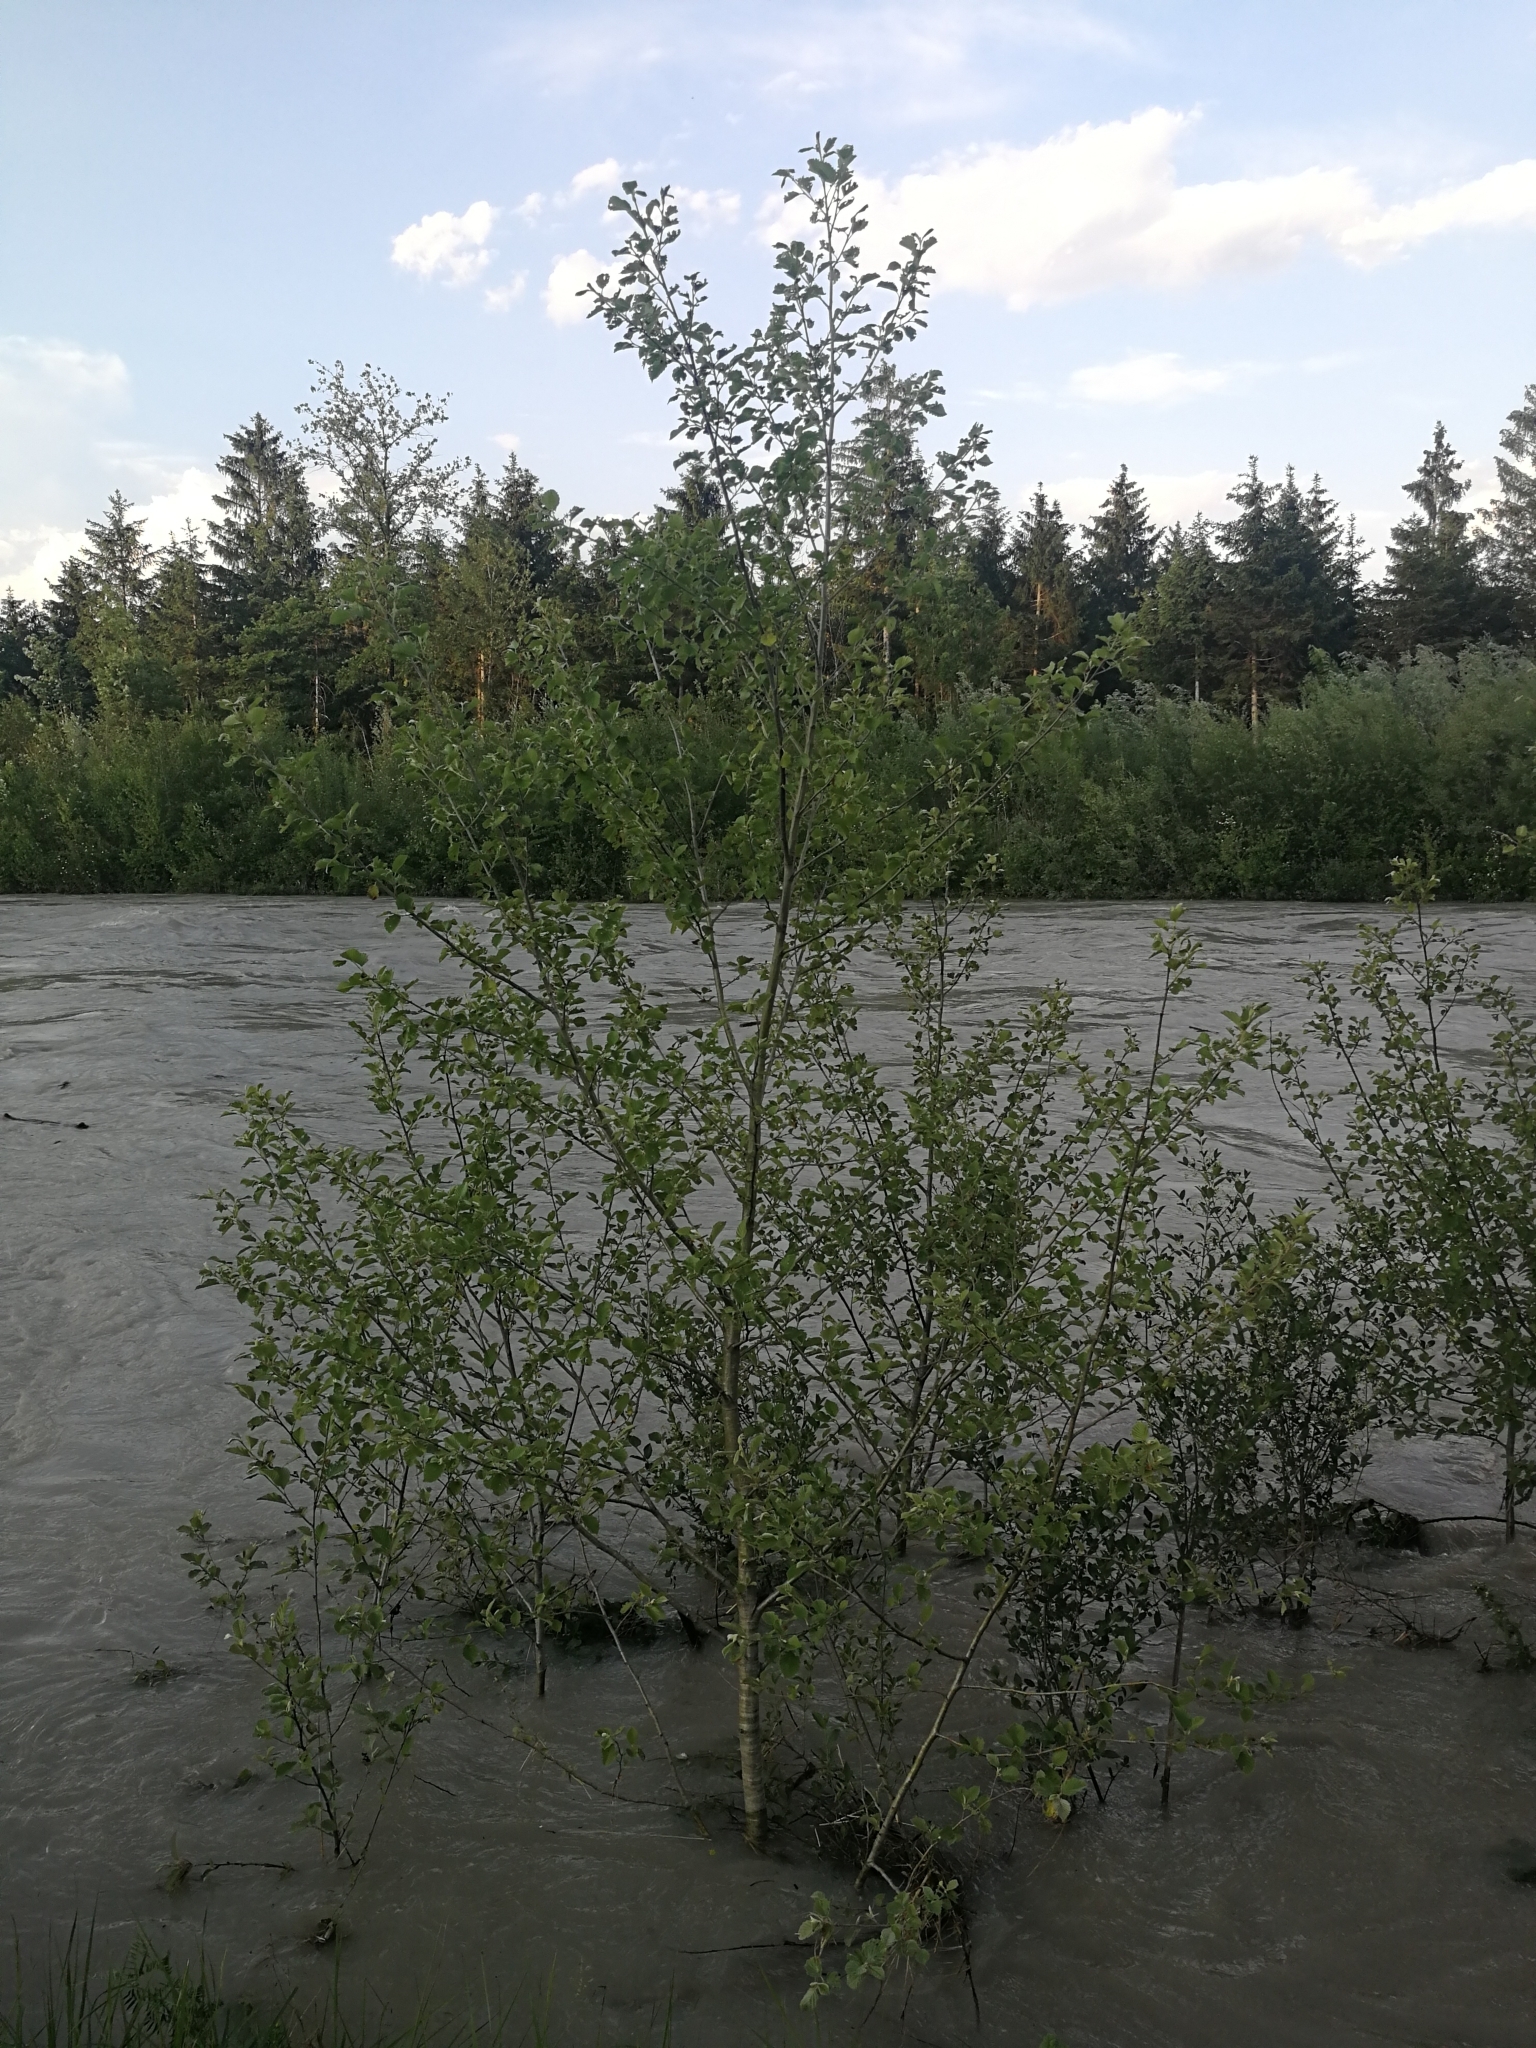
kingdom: Plantae
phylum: Tracheophyta
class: Magnoliopsida
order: Fagales
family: Betulaceae
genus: Alnus
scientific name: Alnus incana
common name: Grey alder
